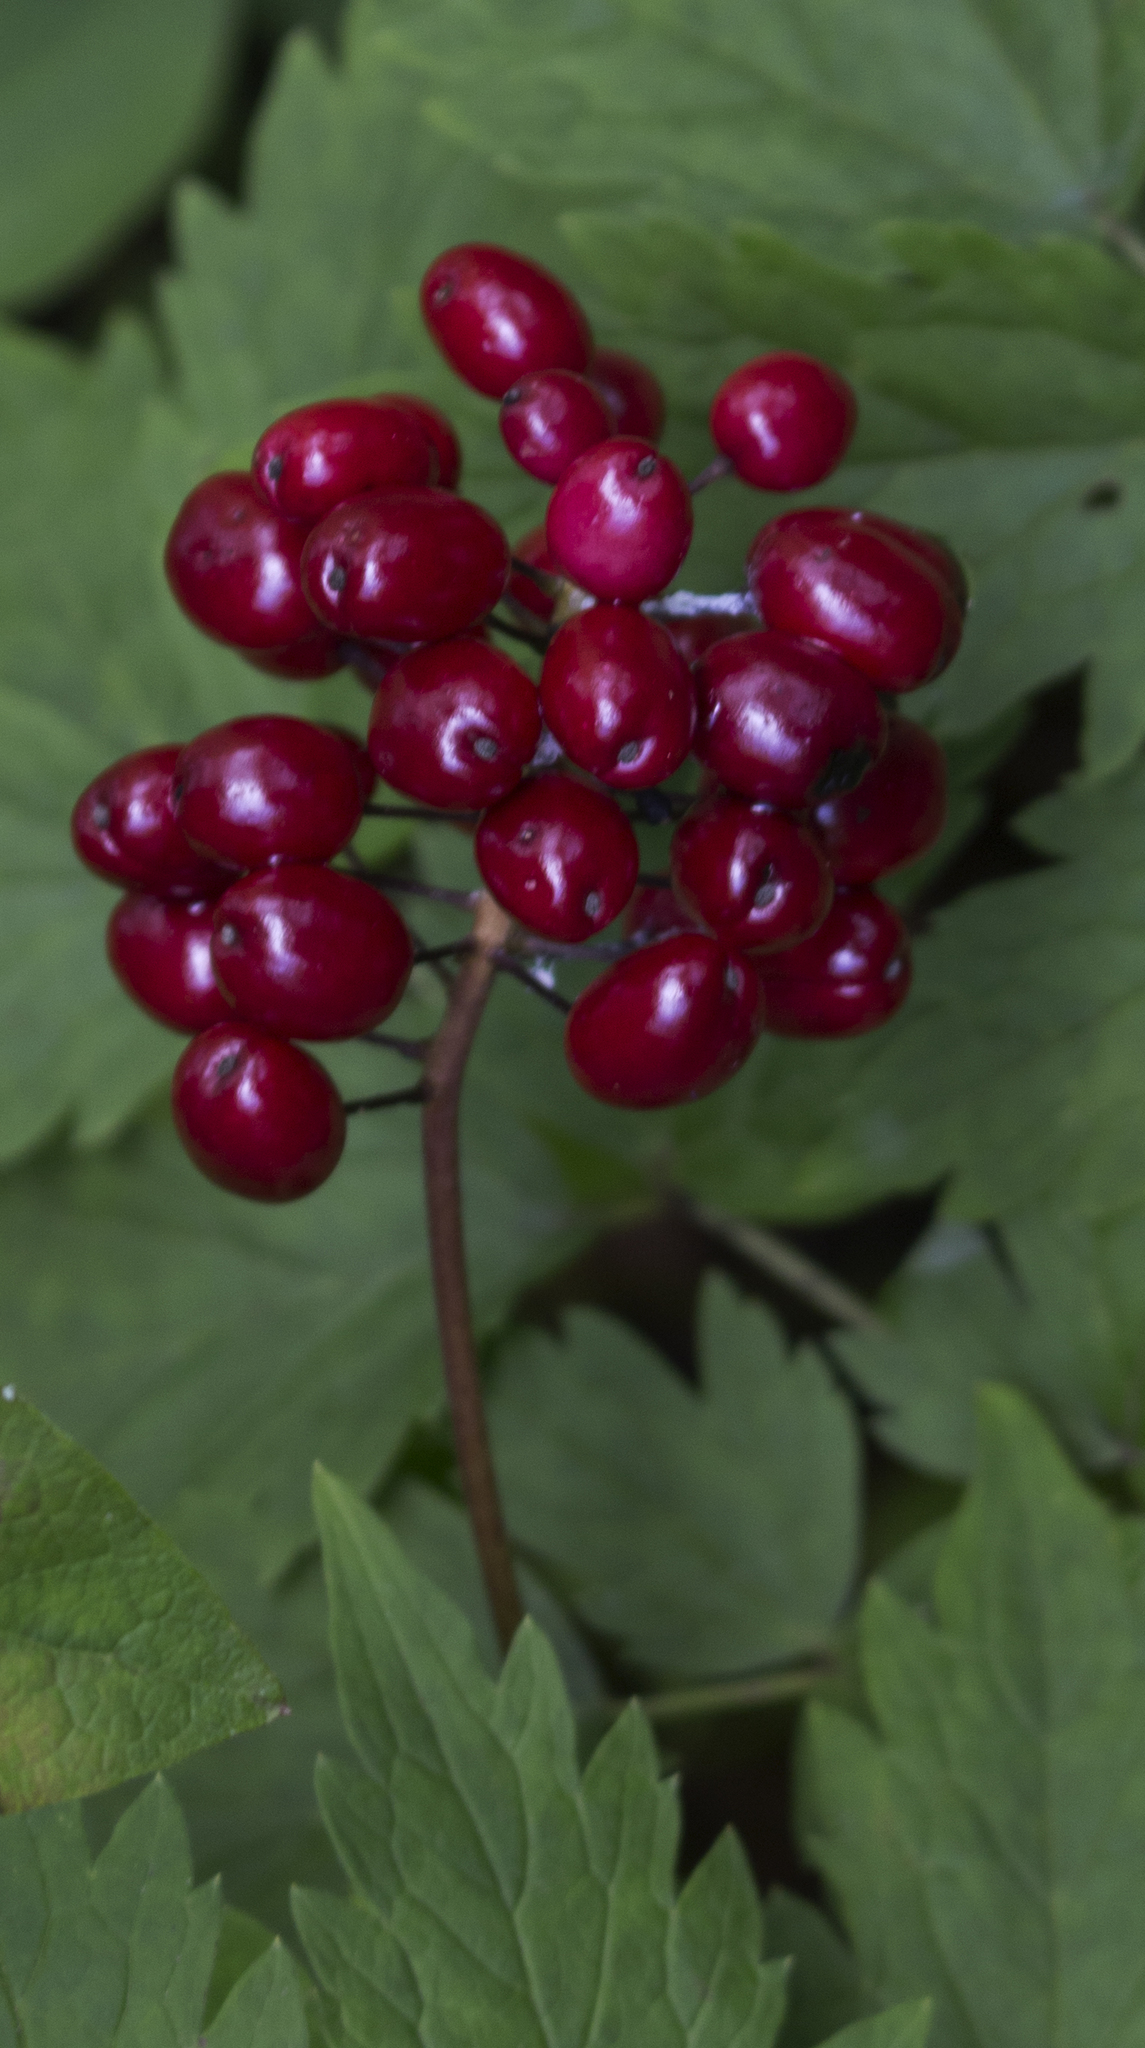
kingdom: Plantae
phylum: Tracheophyta
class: Magnoliopsida
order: Ranunculales
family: Ranunculaceae
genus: Actaea
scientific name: Actaea rubra
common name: Red baneberry
